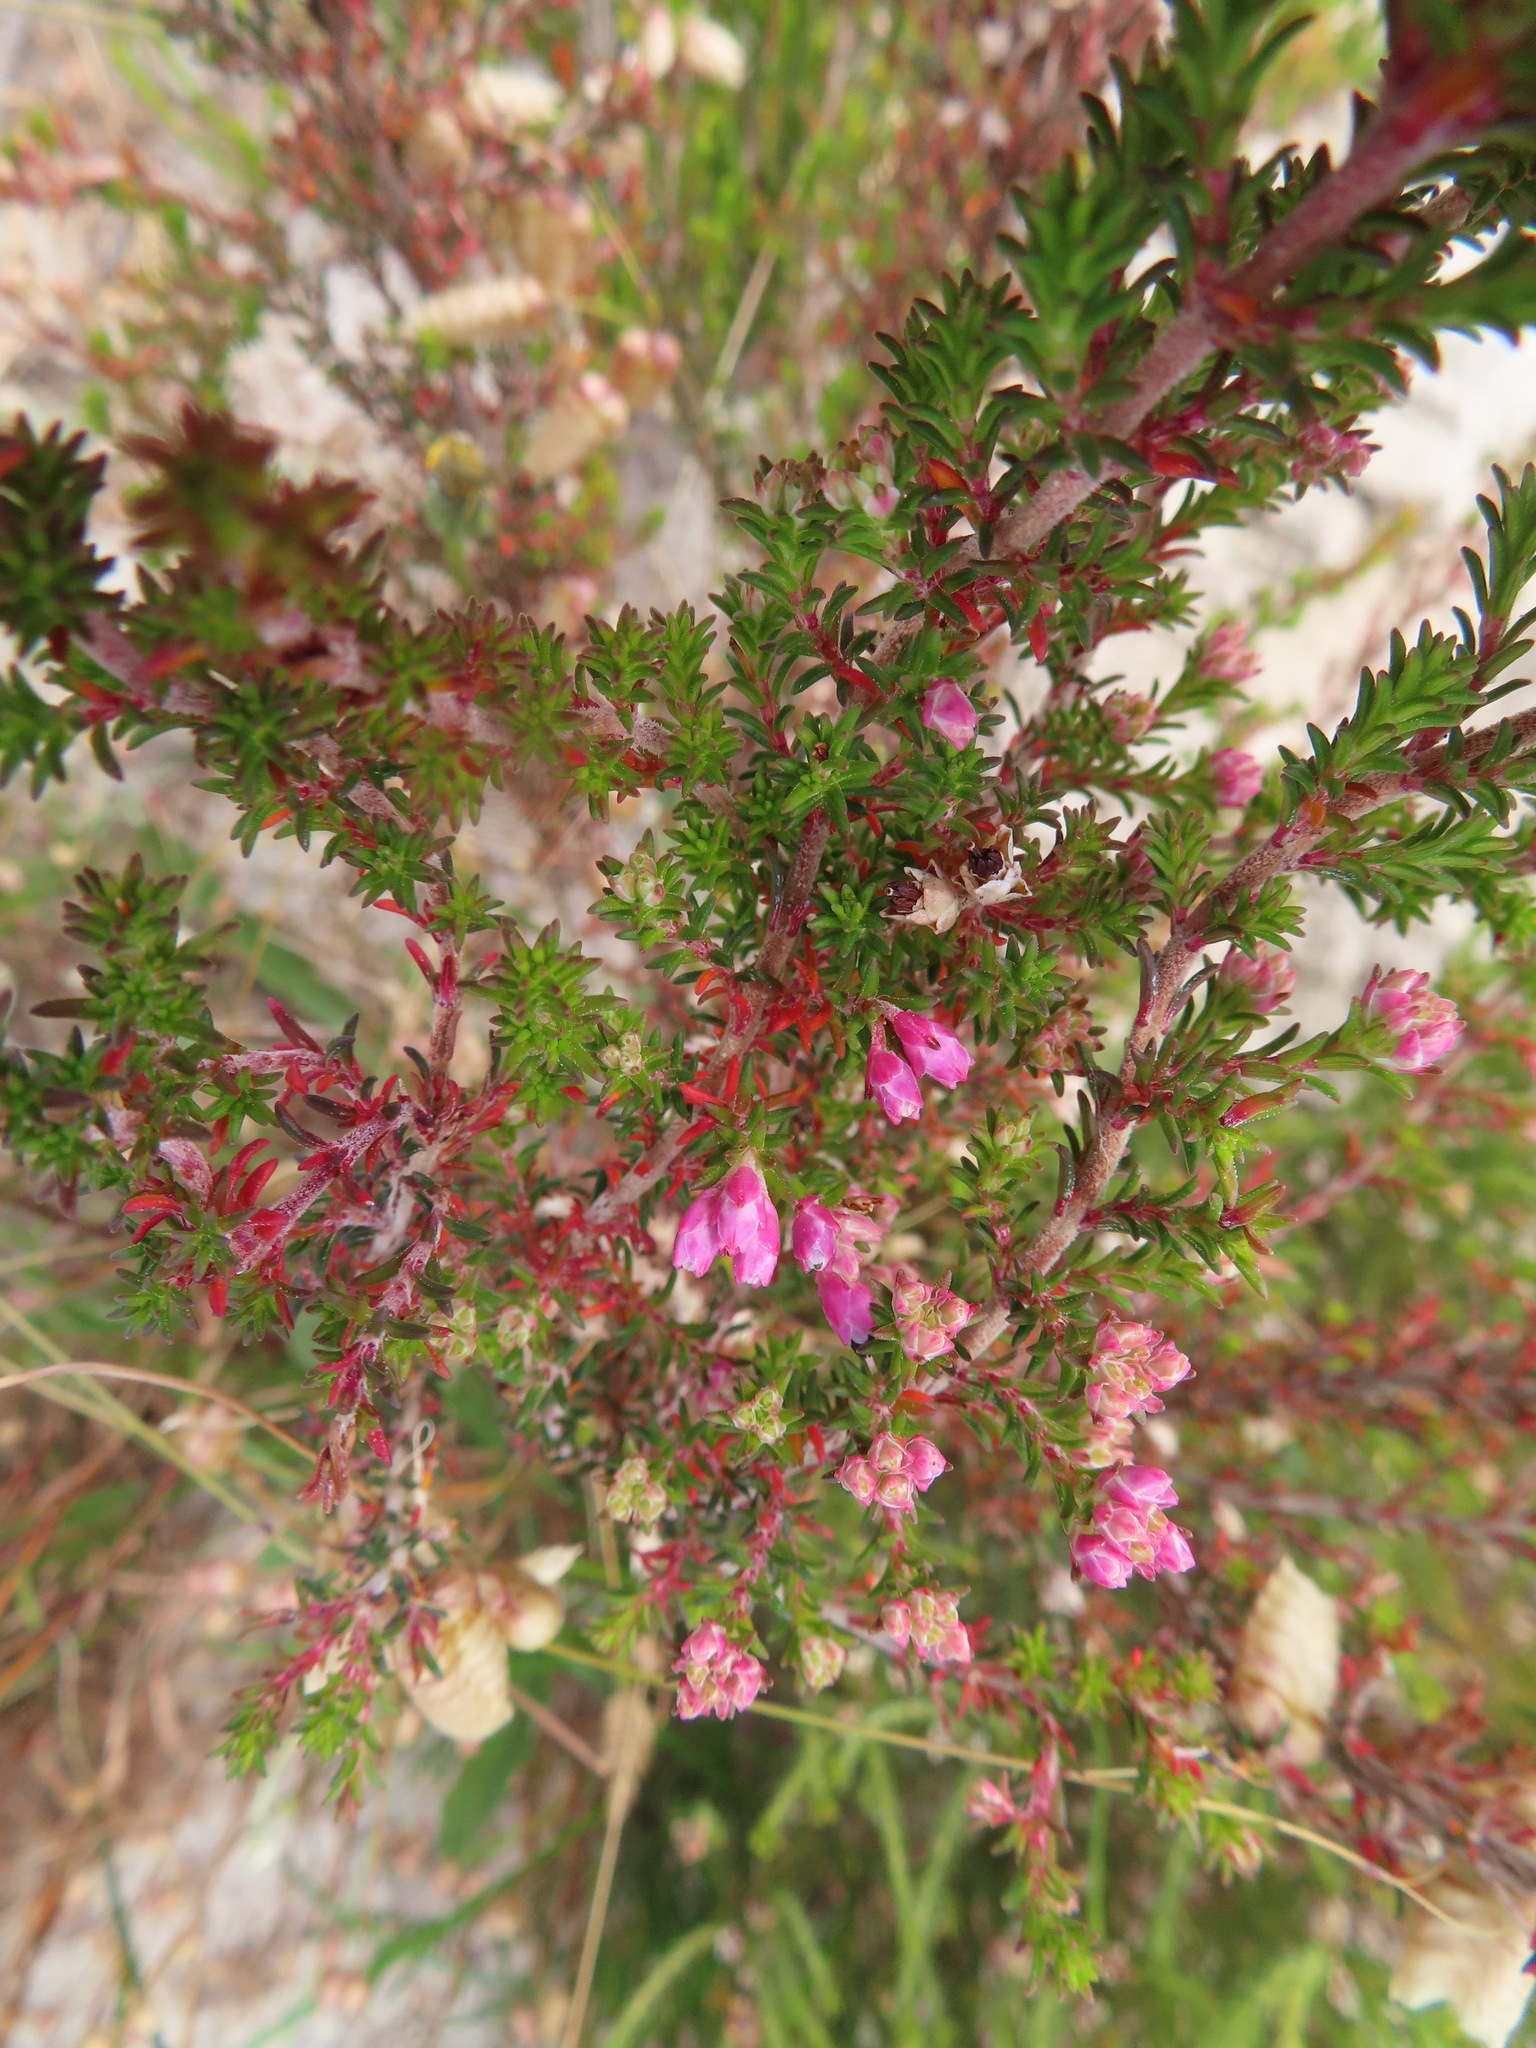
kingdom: Plantae
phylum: Tracheophyta
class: Magnoliopsida
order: Ericales
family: Ericaceae
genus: Erica
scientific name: Erica placentiflora
